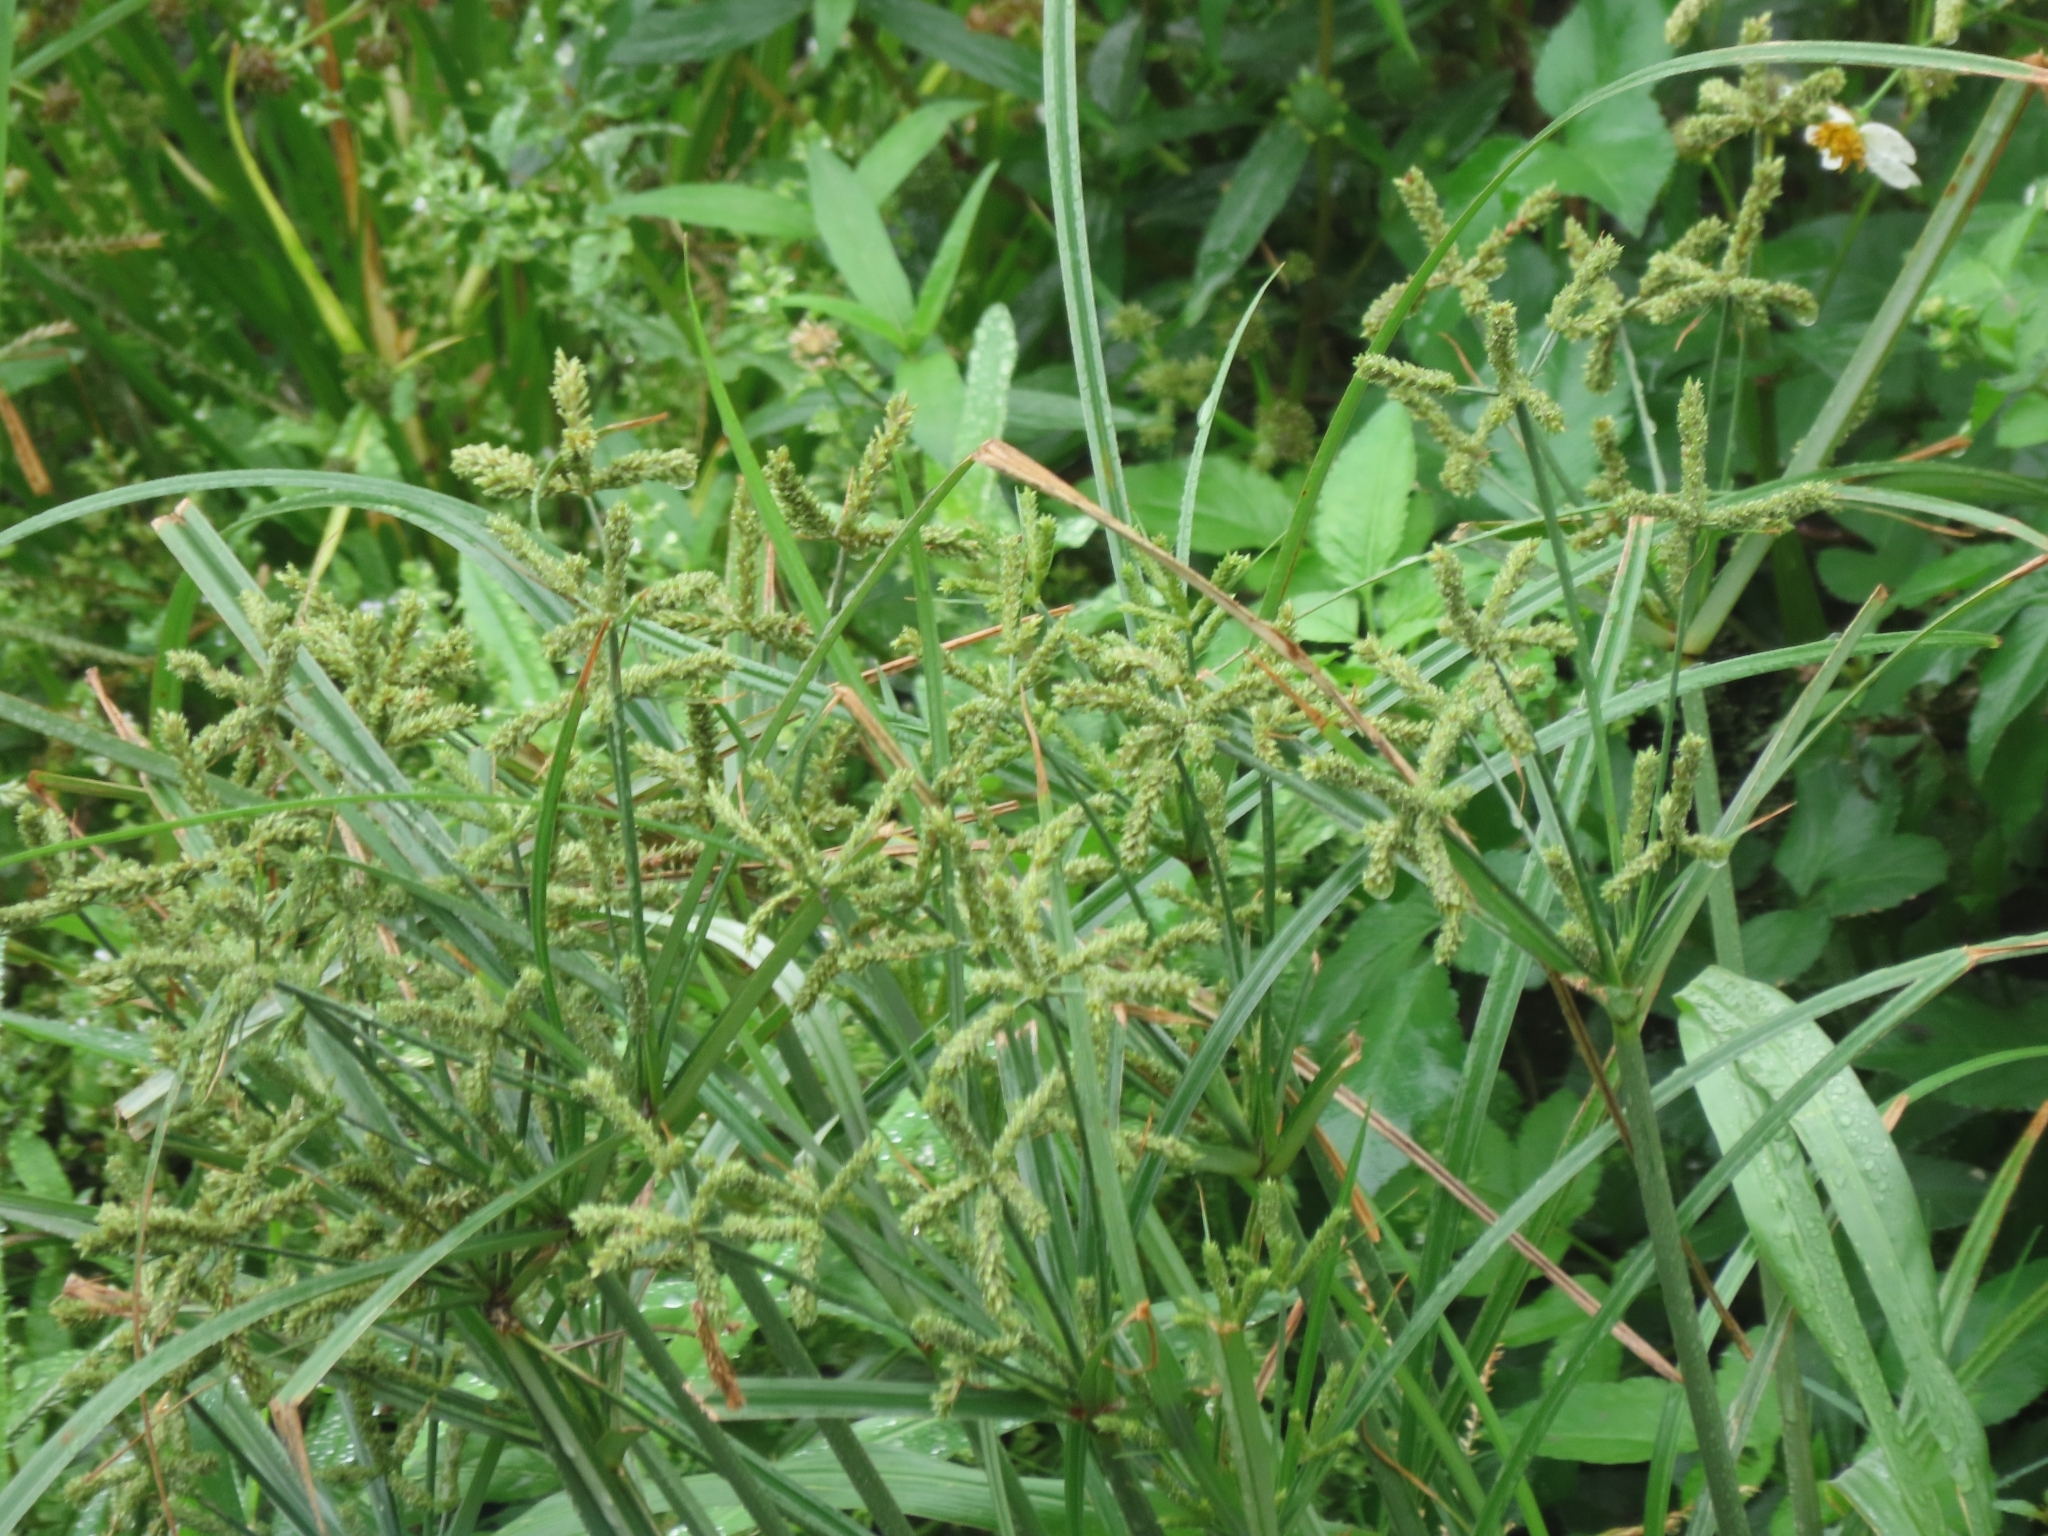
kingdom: Plantae
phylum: Tracheophyta
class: Liliopsida
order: Poales
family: Cyperaceae
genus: Cyperus
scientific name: Cyperus imbricatus
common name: Shingle flatsedge
